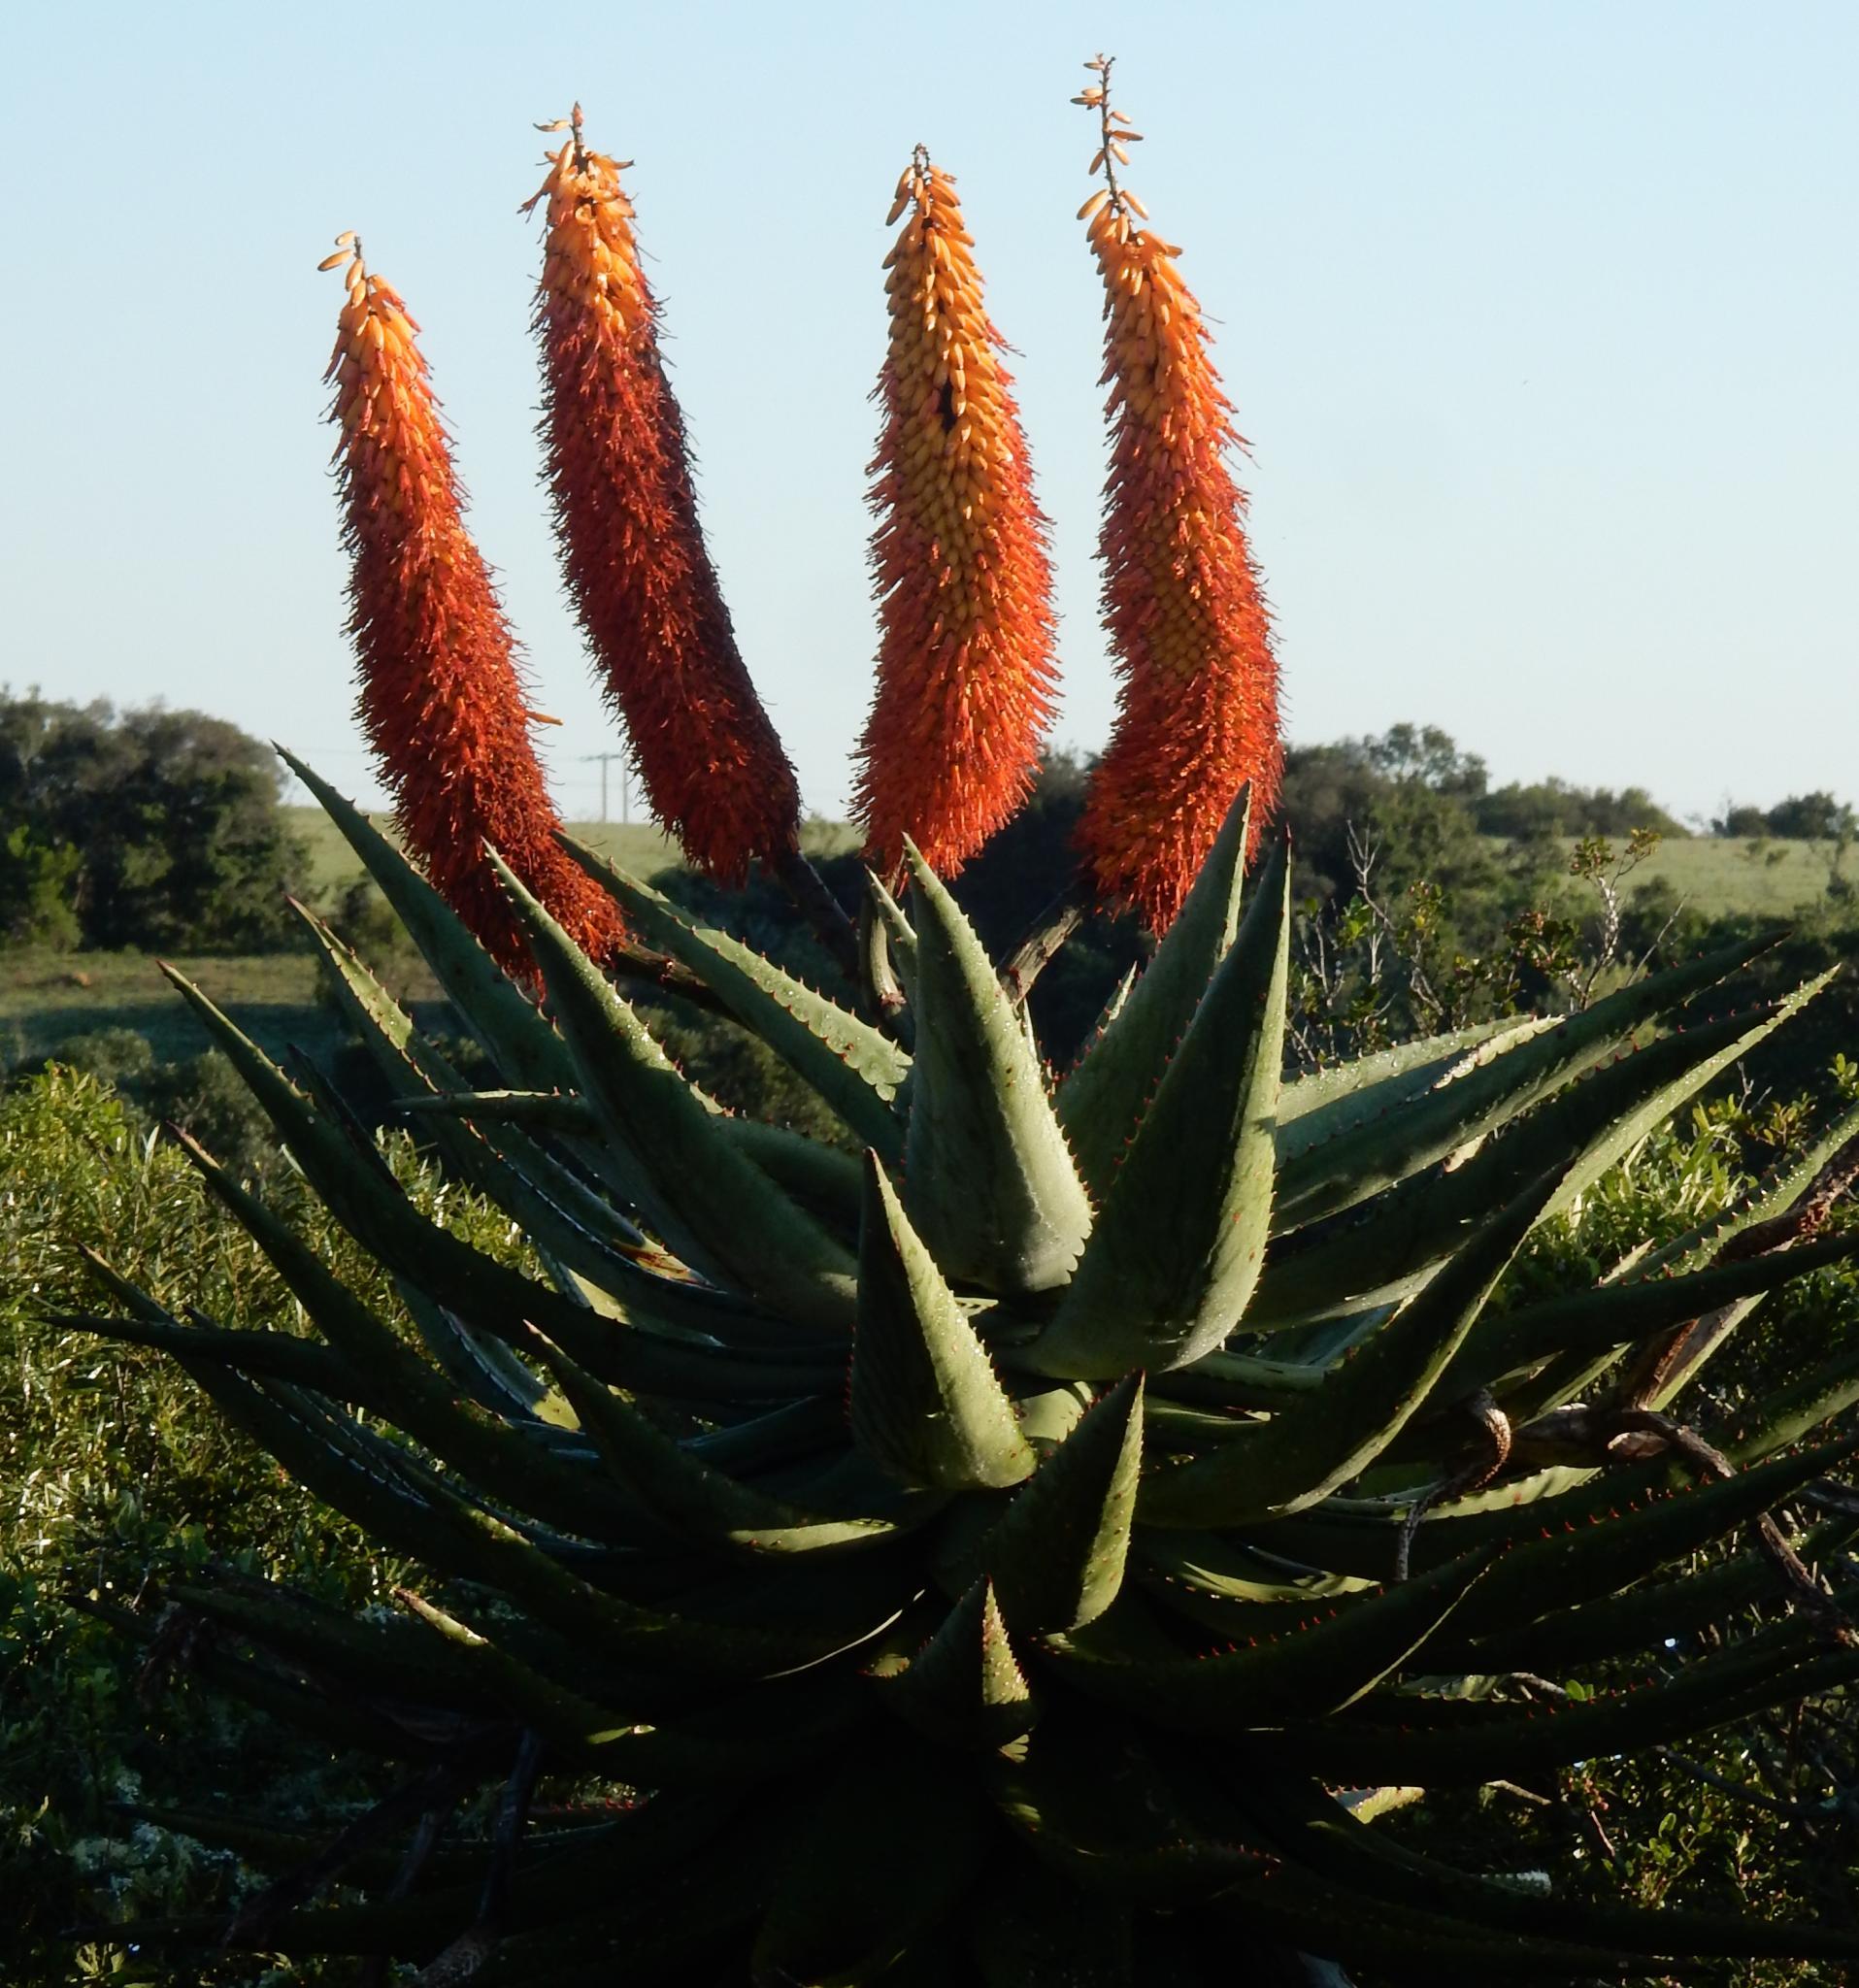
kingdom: Plantae
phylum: Tracheophyta
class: Liliopsida
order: Asparagales
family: Asphodelaceae
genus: Aloe
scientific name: Aloe ferox
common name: Bitter aloe
